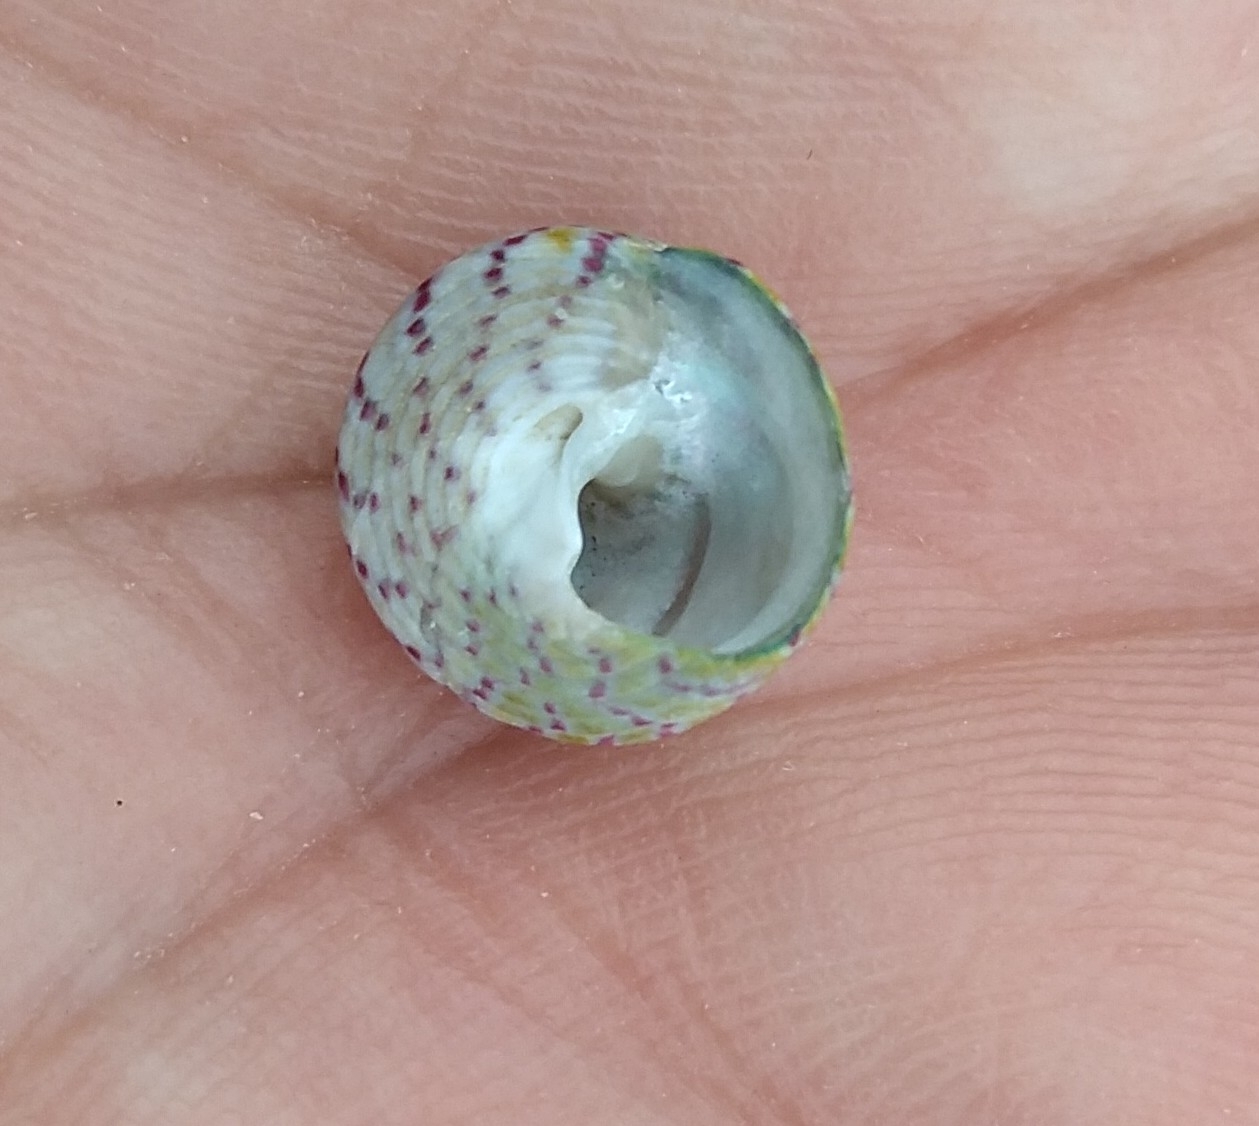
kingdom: Animalia
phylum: Mollusca
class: Gastropoda
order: Trochida
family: Trochidae
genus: Steromphala
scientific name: Steromphala rarilineata
